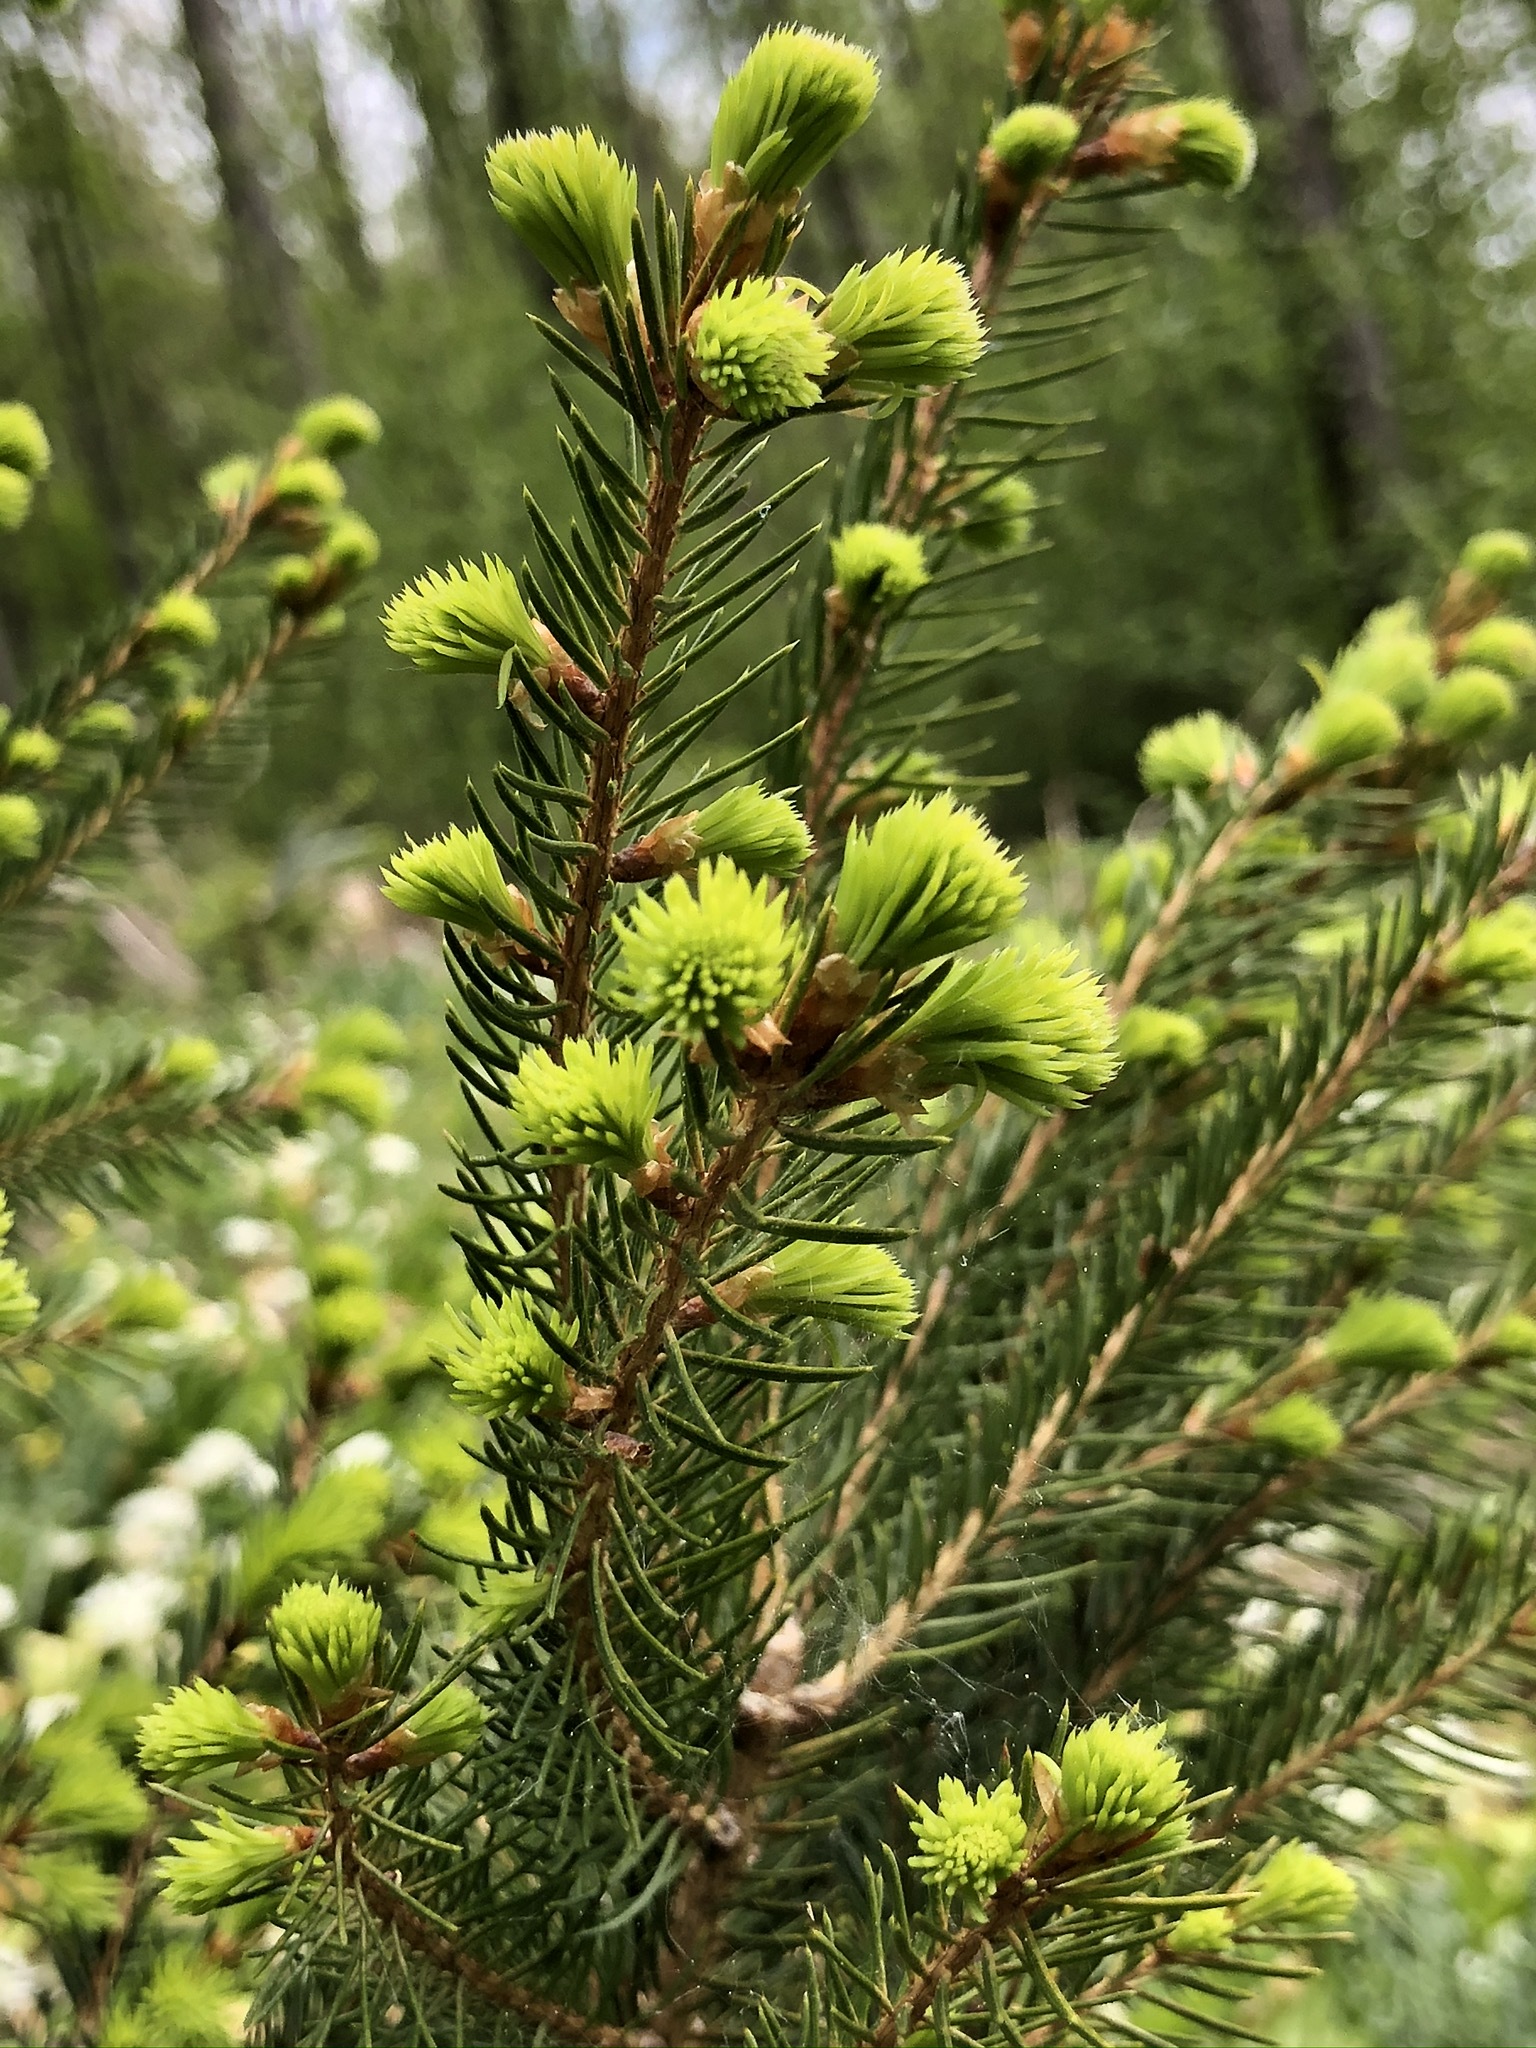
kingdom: Plantae
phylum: Tracheophyta
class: Pinopsida
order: Pinales
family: Pinaceae
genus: Picea
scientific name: Picea abies
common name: Norway spruce
